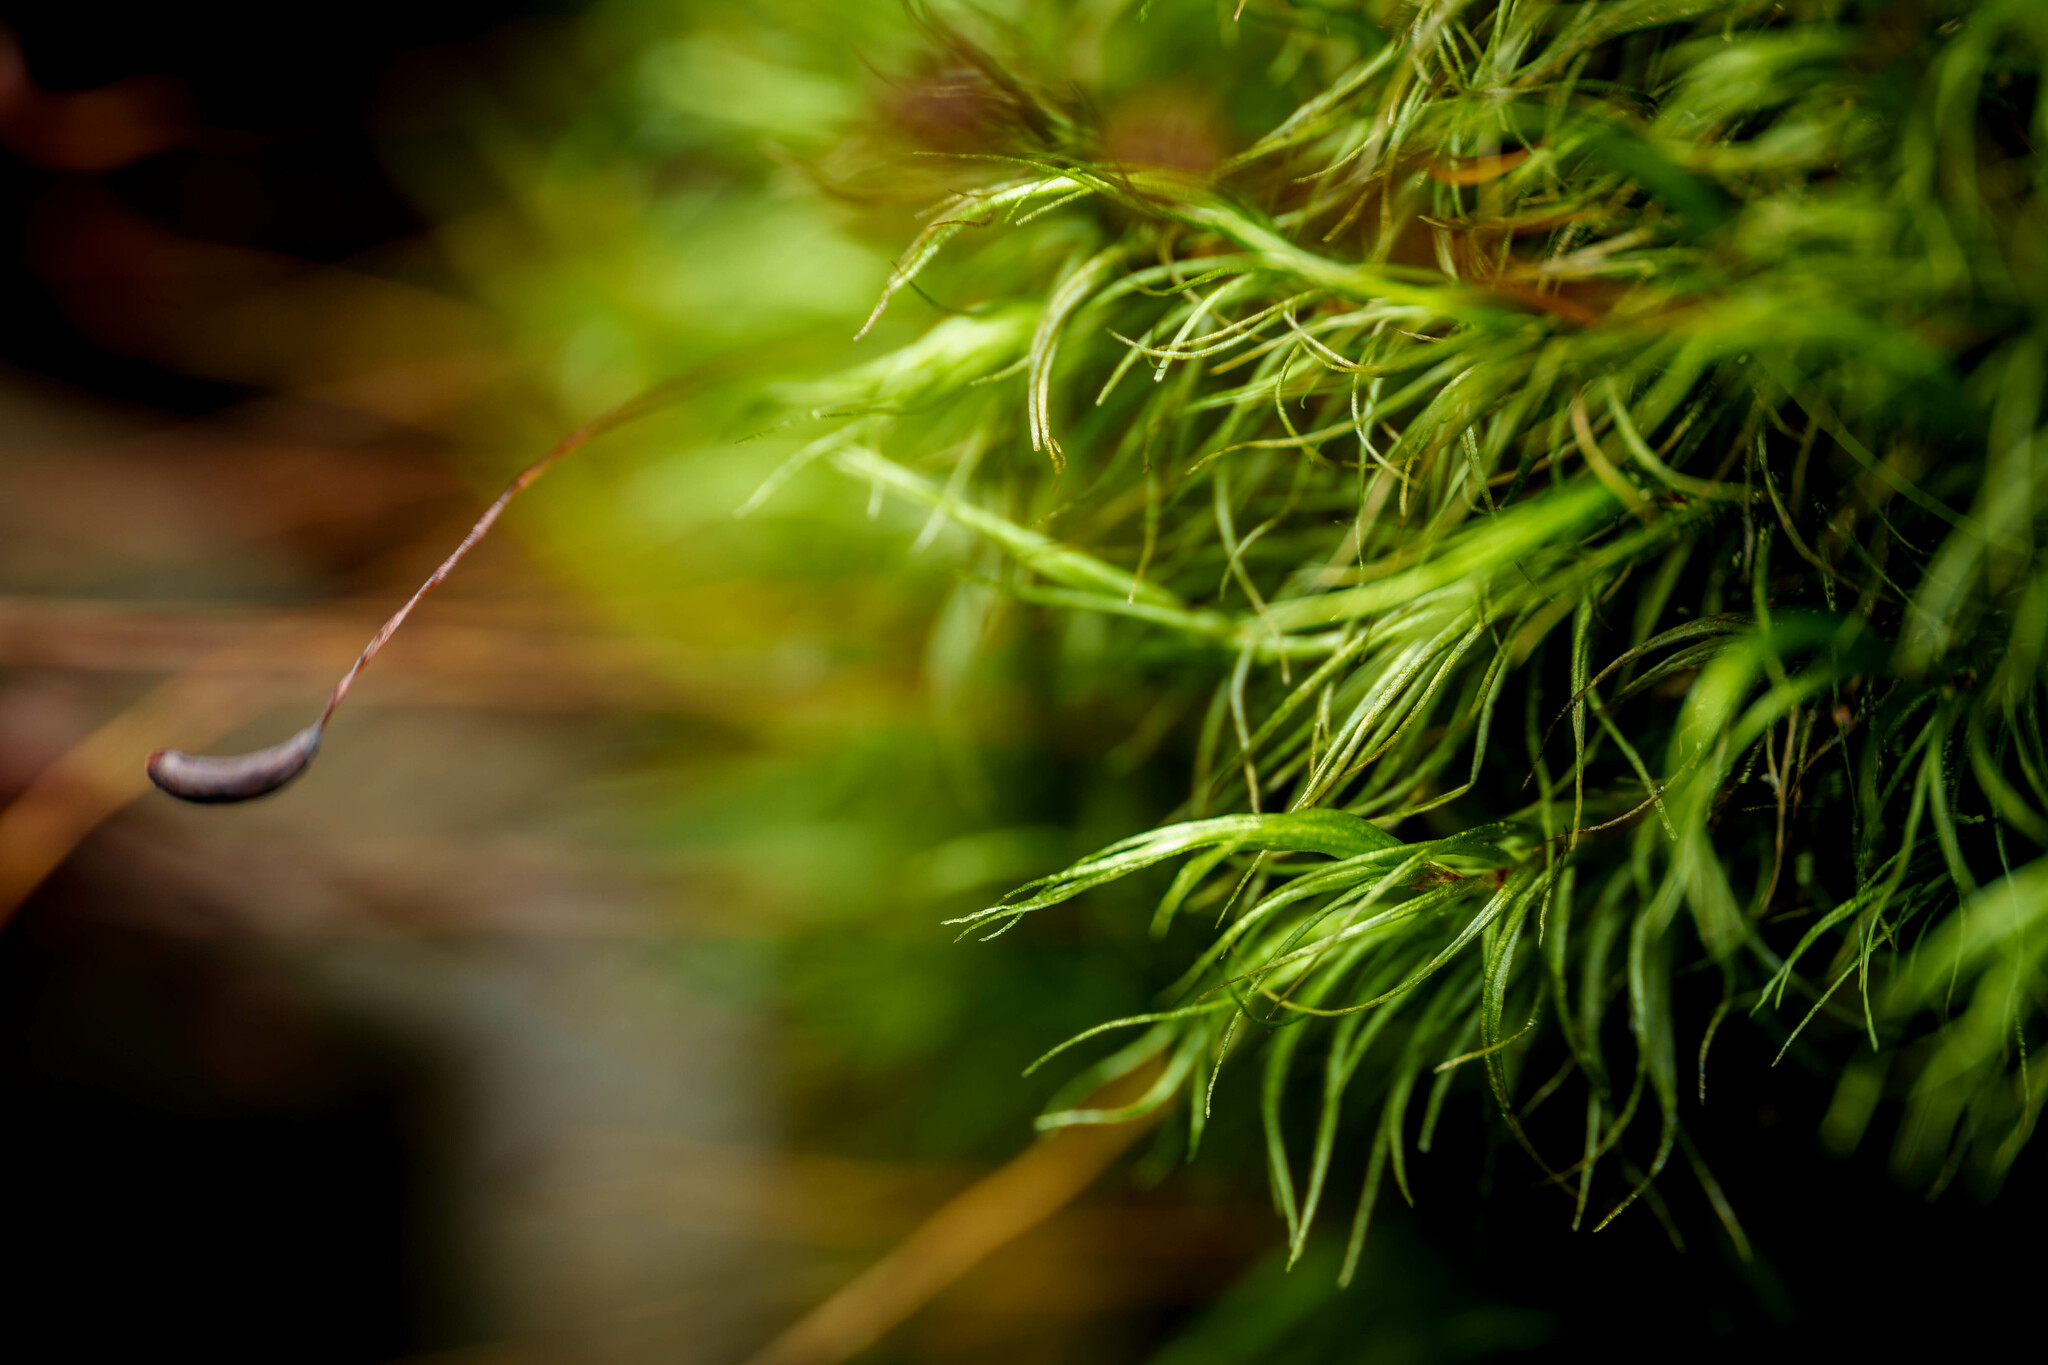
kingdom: Plantae
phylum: Bryophyta
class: Bryopsida
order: Dicranales
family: Dicranaceae
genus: Dicranum
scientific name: Dicranum fuscescens
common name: Curly heron's-bill moss
